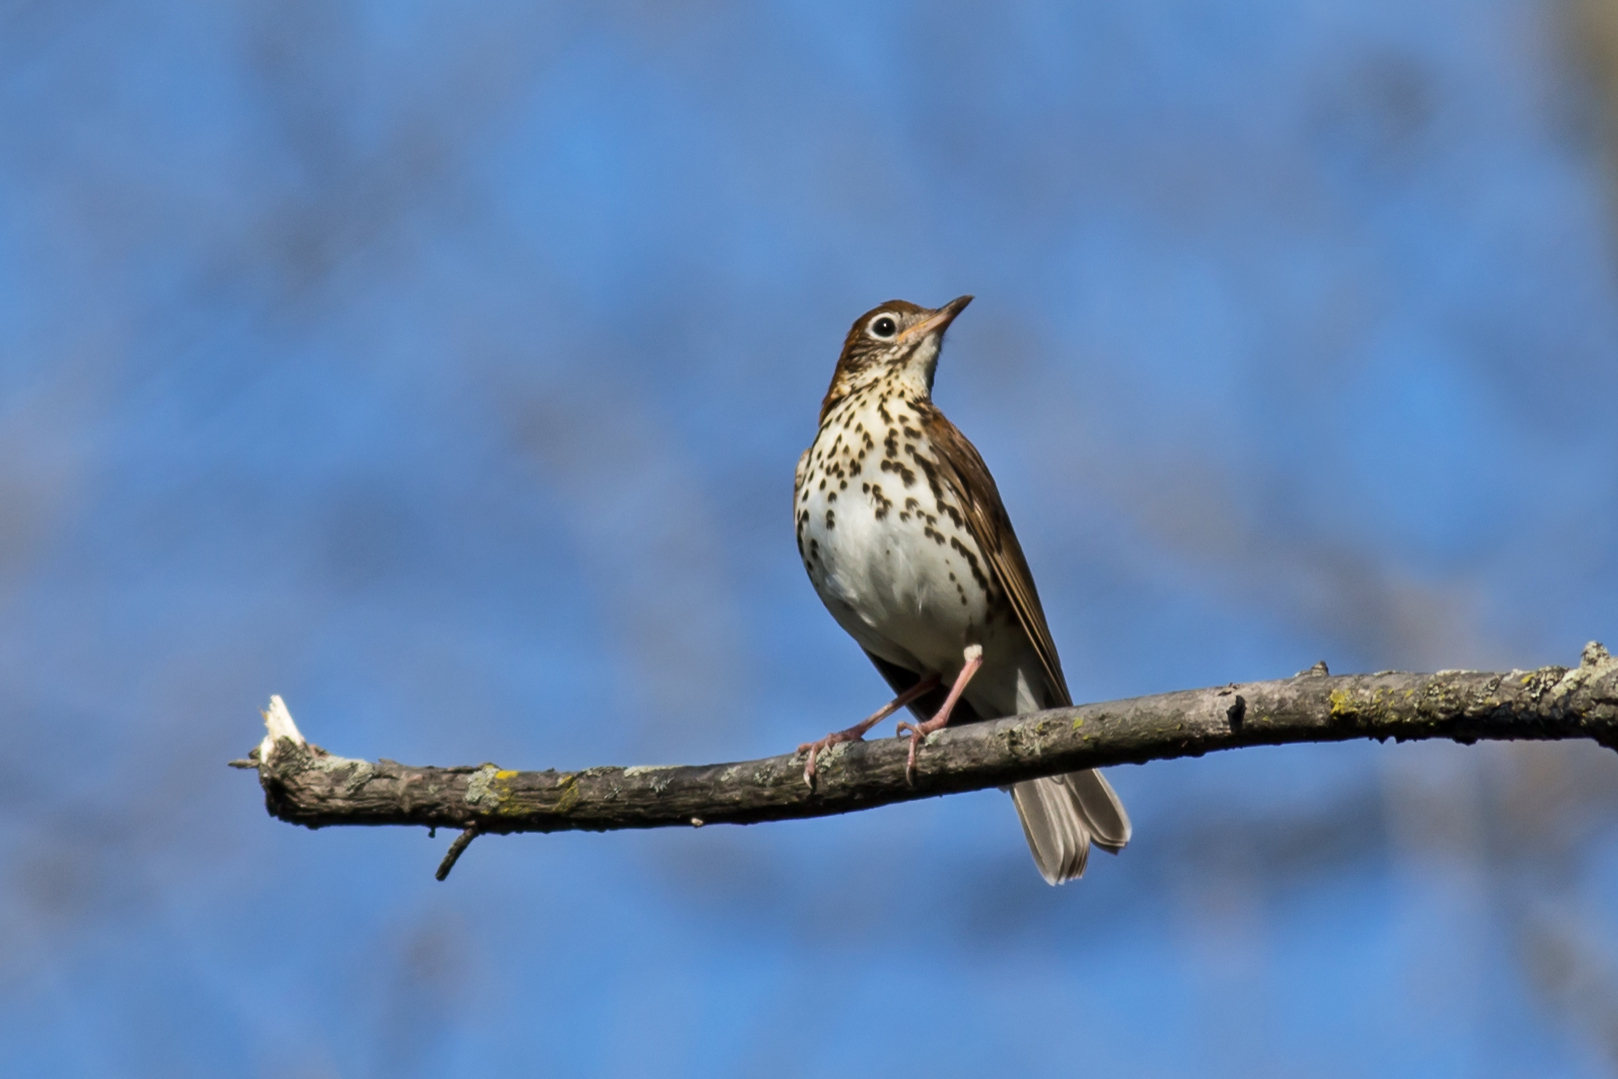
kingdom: Animalia
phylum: Chordata
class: Aves
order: Passeriformes
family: Turdidae
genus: Hylocichla
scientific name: Hylocichla mustelina
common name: Wood thrush
